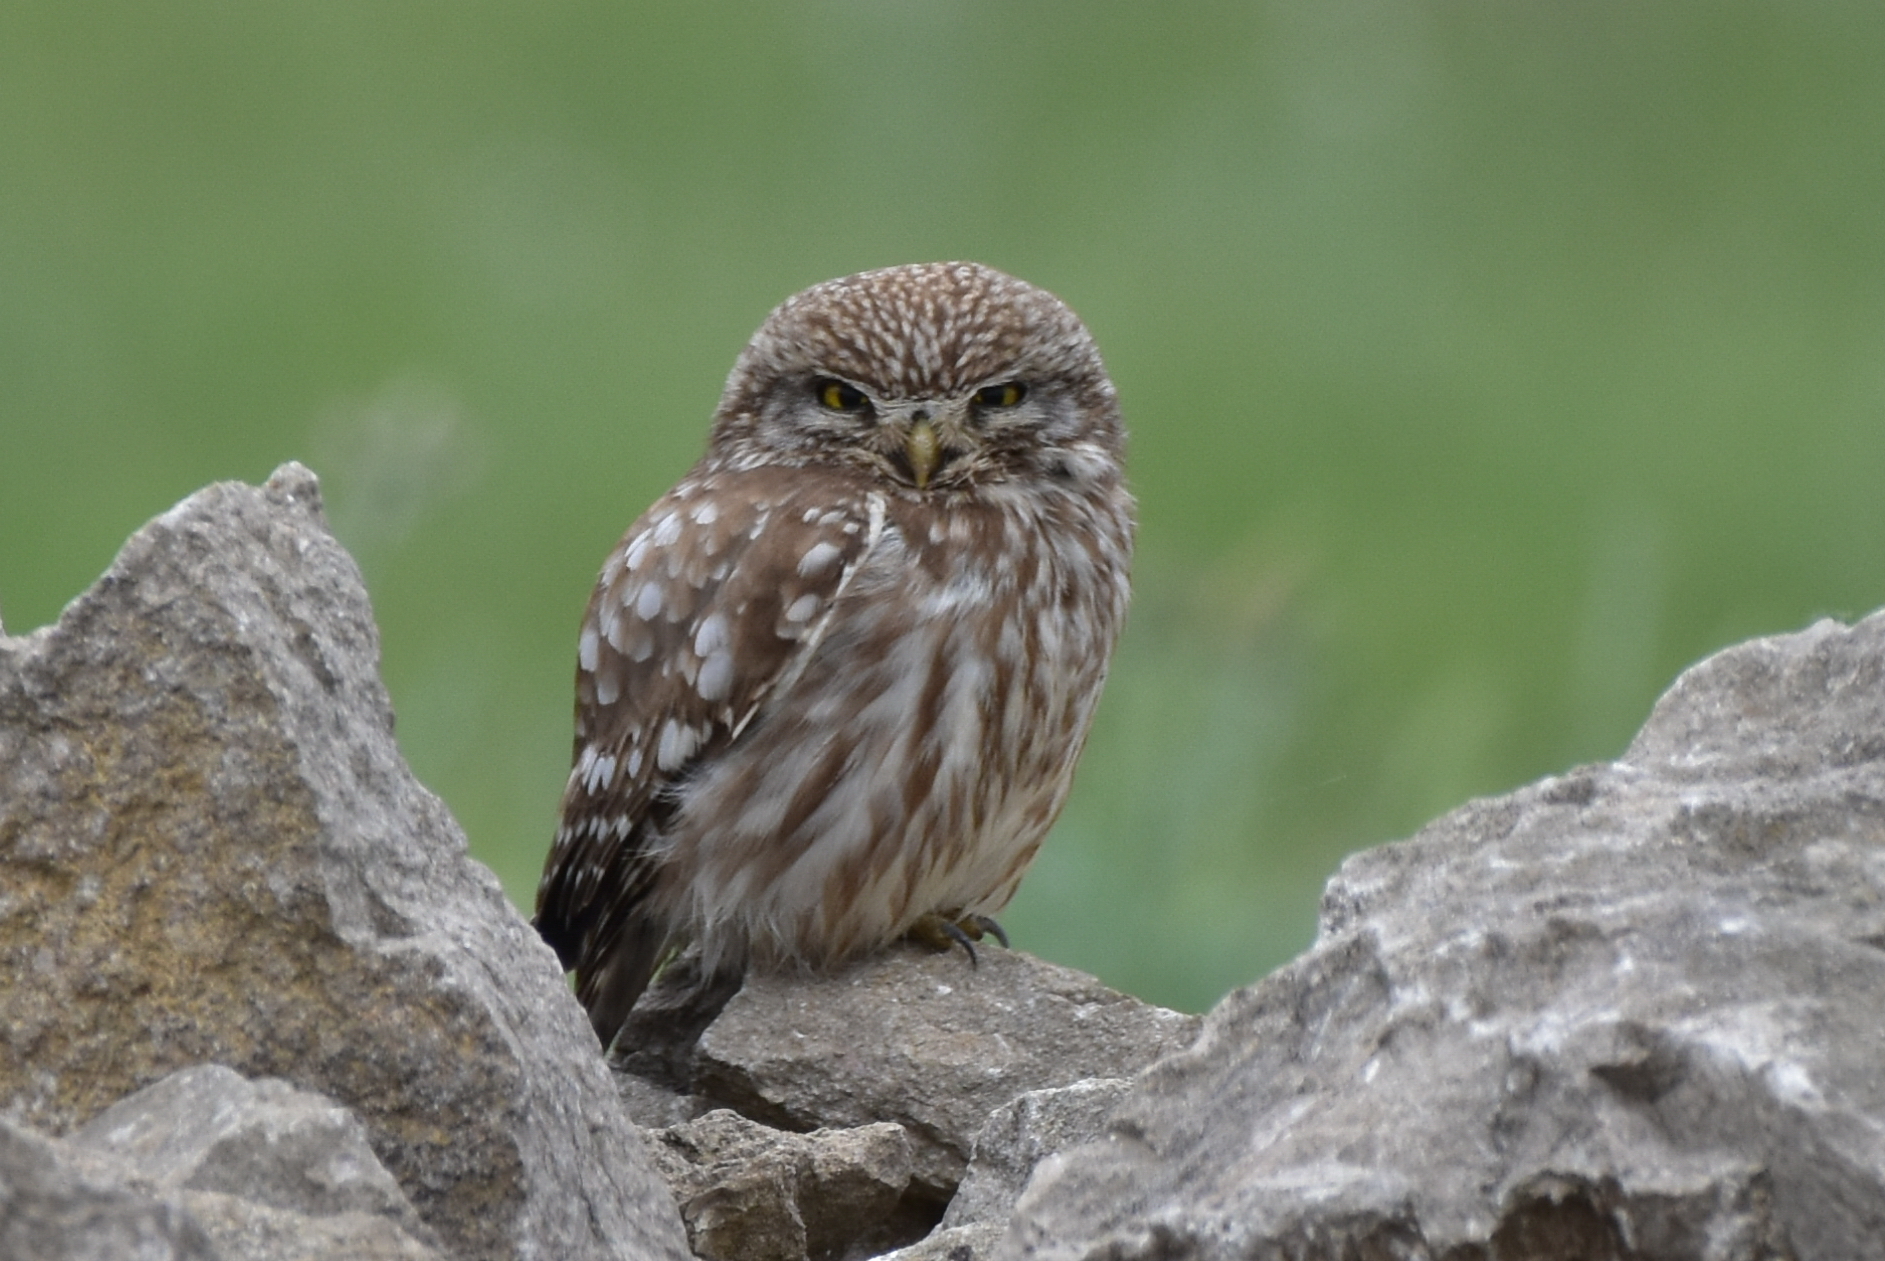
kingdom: Animalia
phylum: Chordata
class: Aves
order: Strigiformes
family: Strigidae
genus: Athene
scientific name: Athene noctua
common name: Little owl
